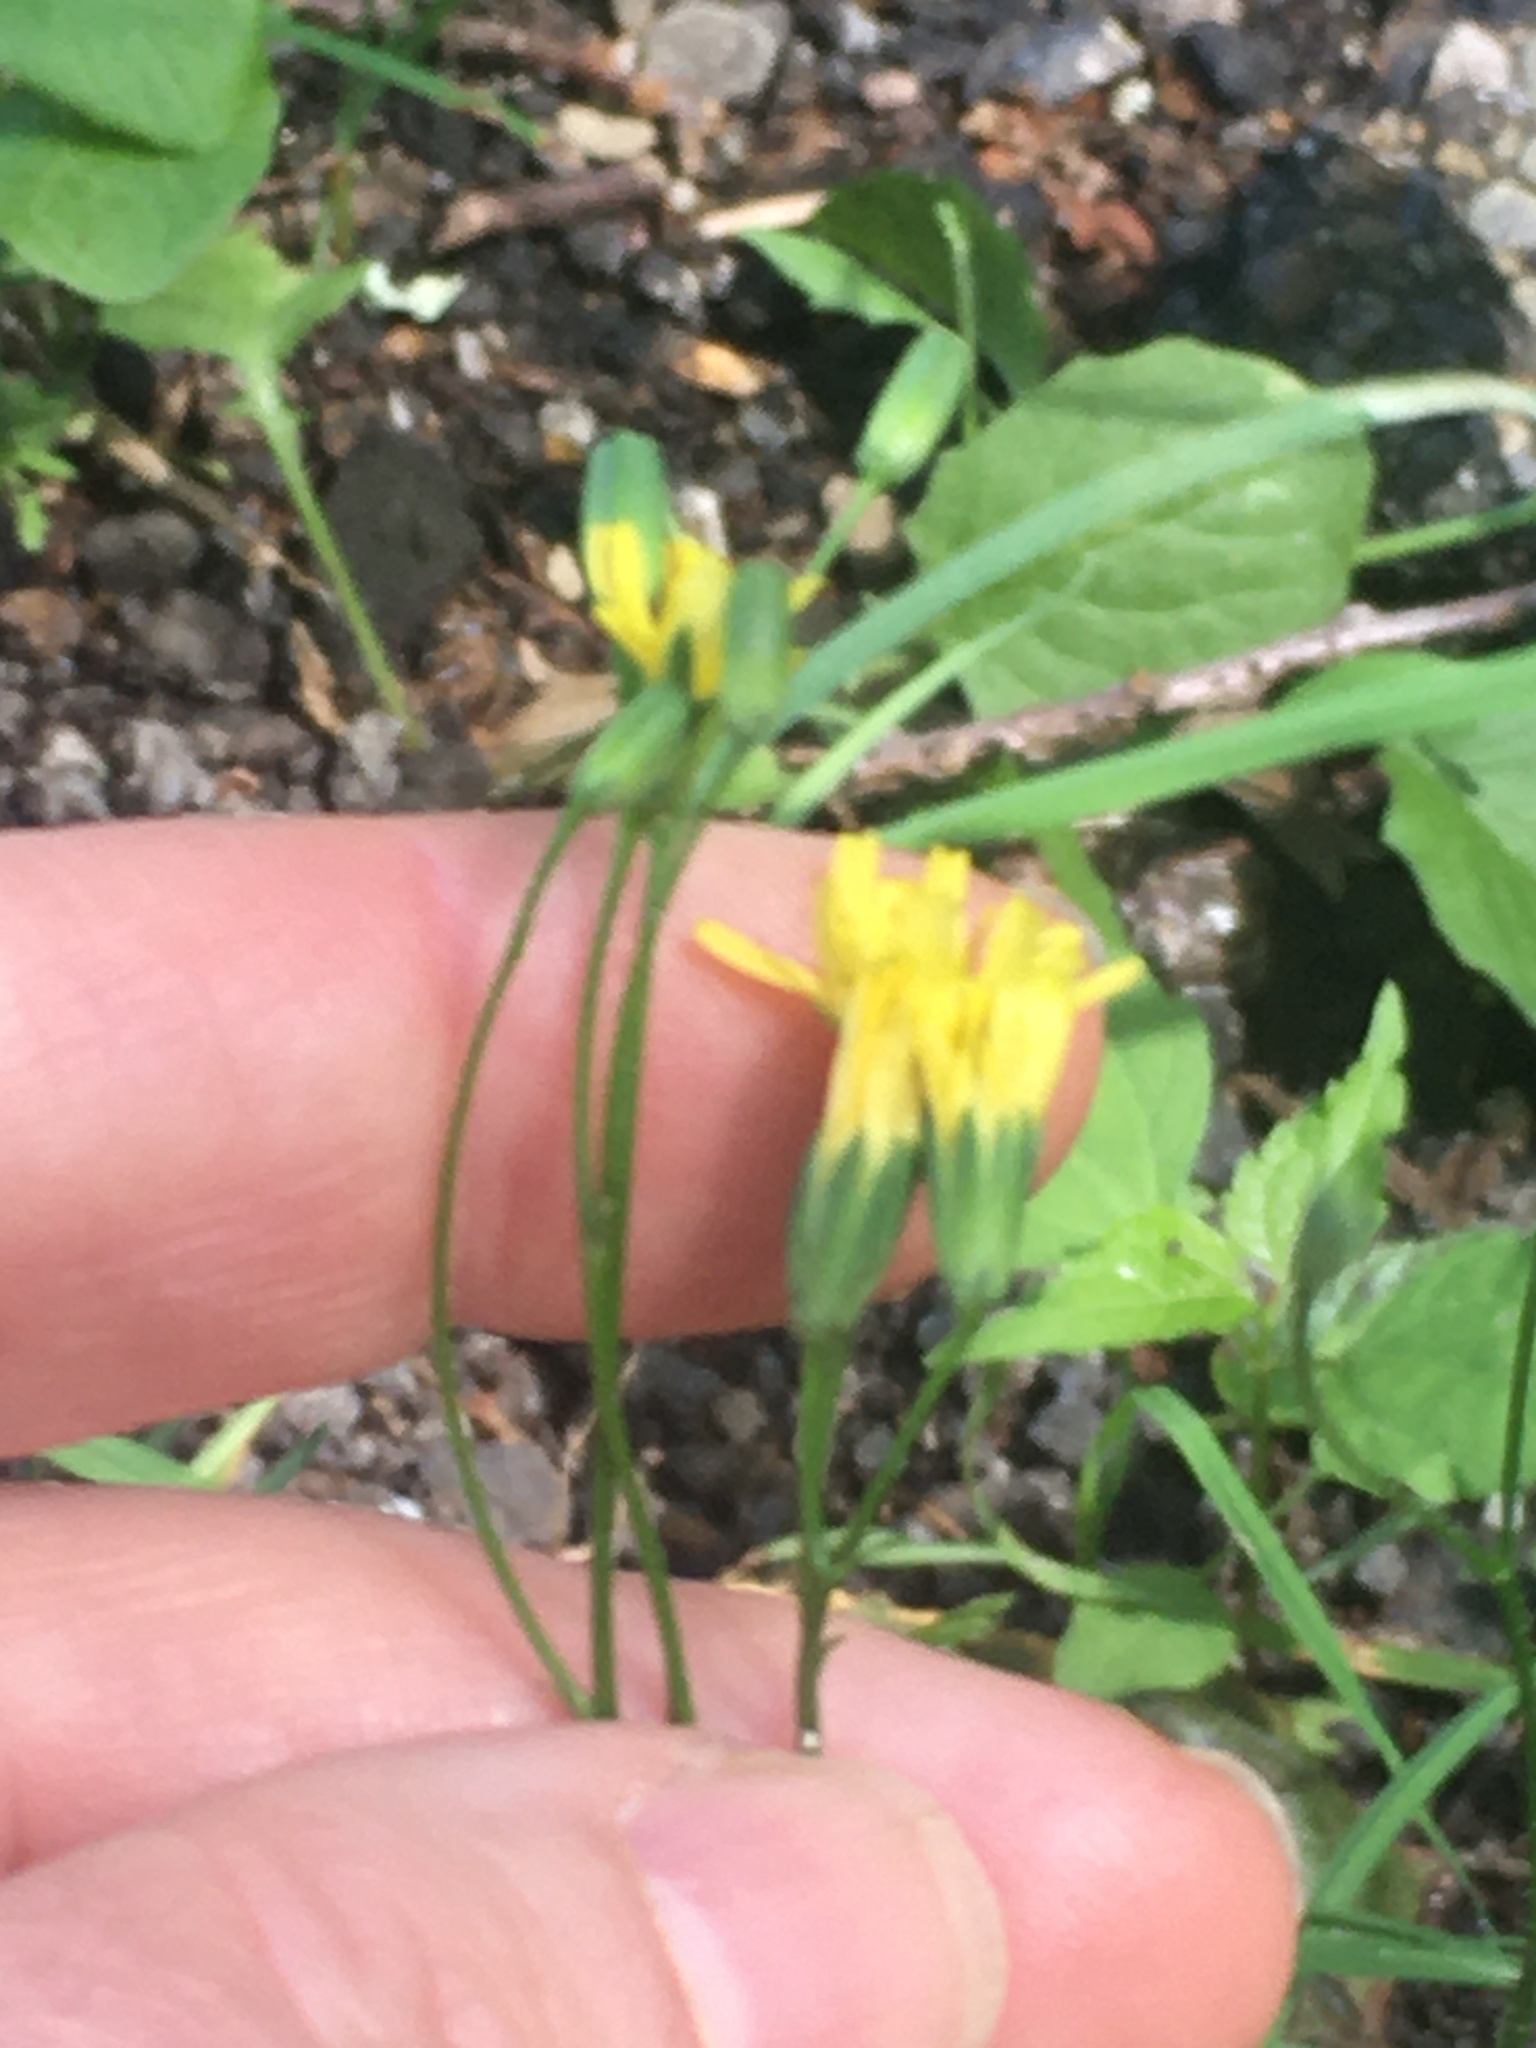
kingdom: Plantae
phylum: Tracheophyta
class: Magnoliopsida
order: Asterales
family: Asteraceae
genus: Lapsana
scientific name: Lapsana communis
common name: Nipplewort
